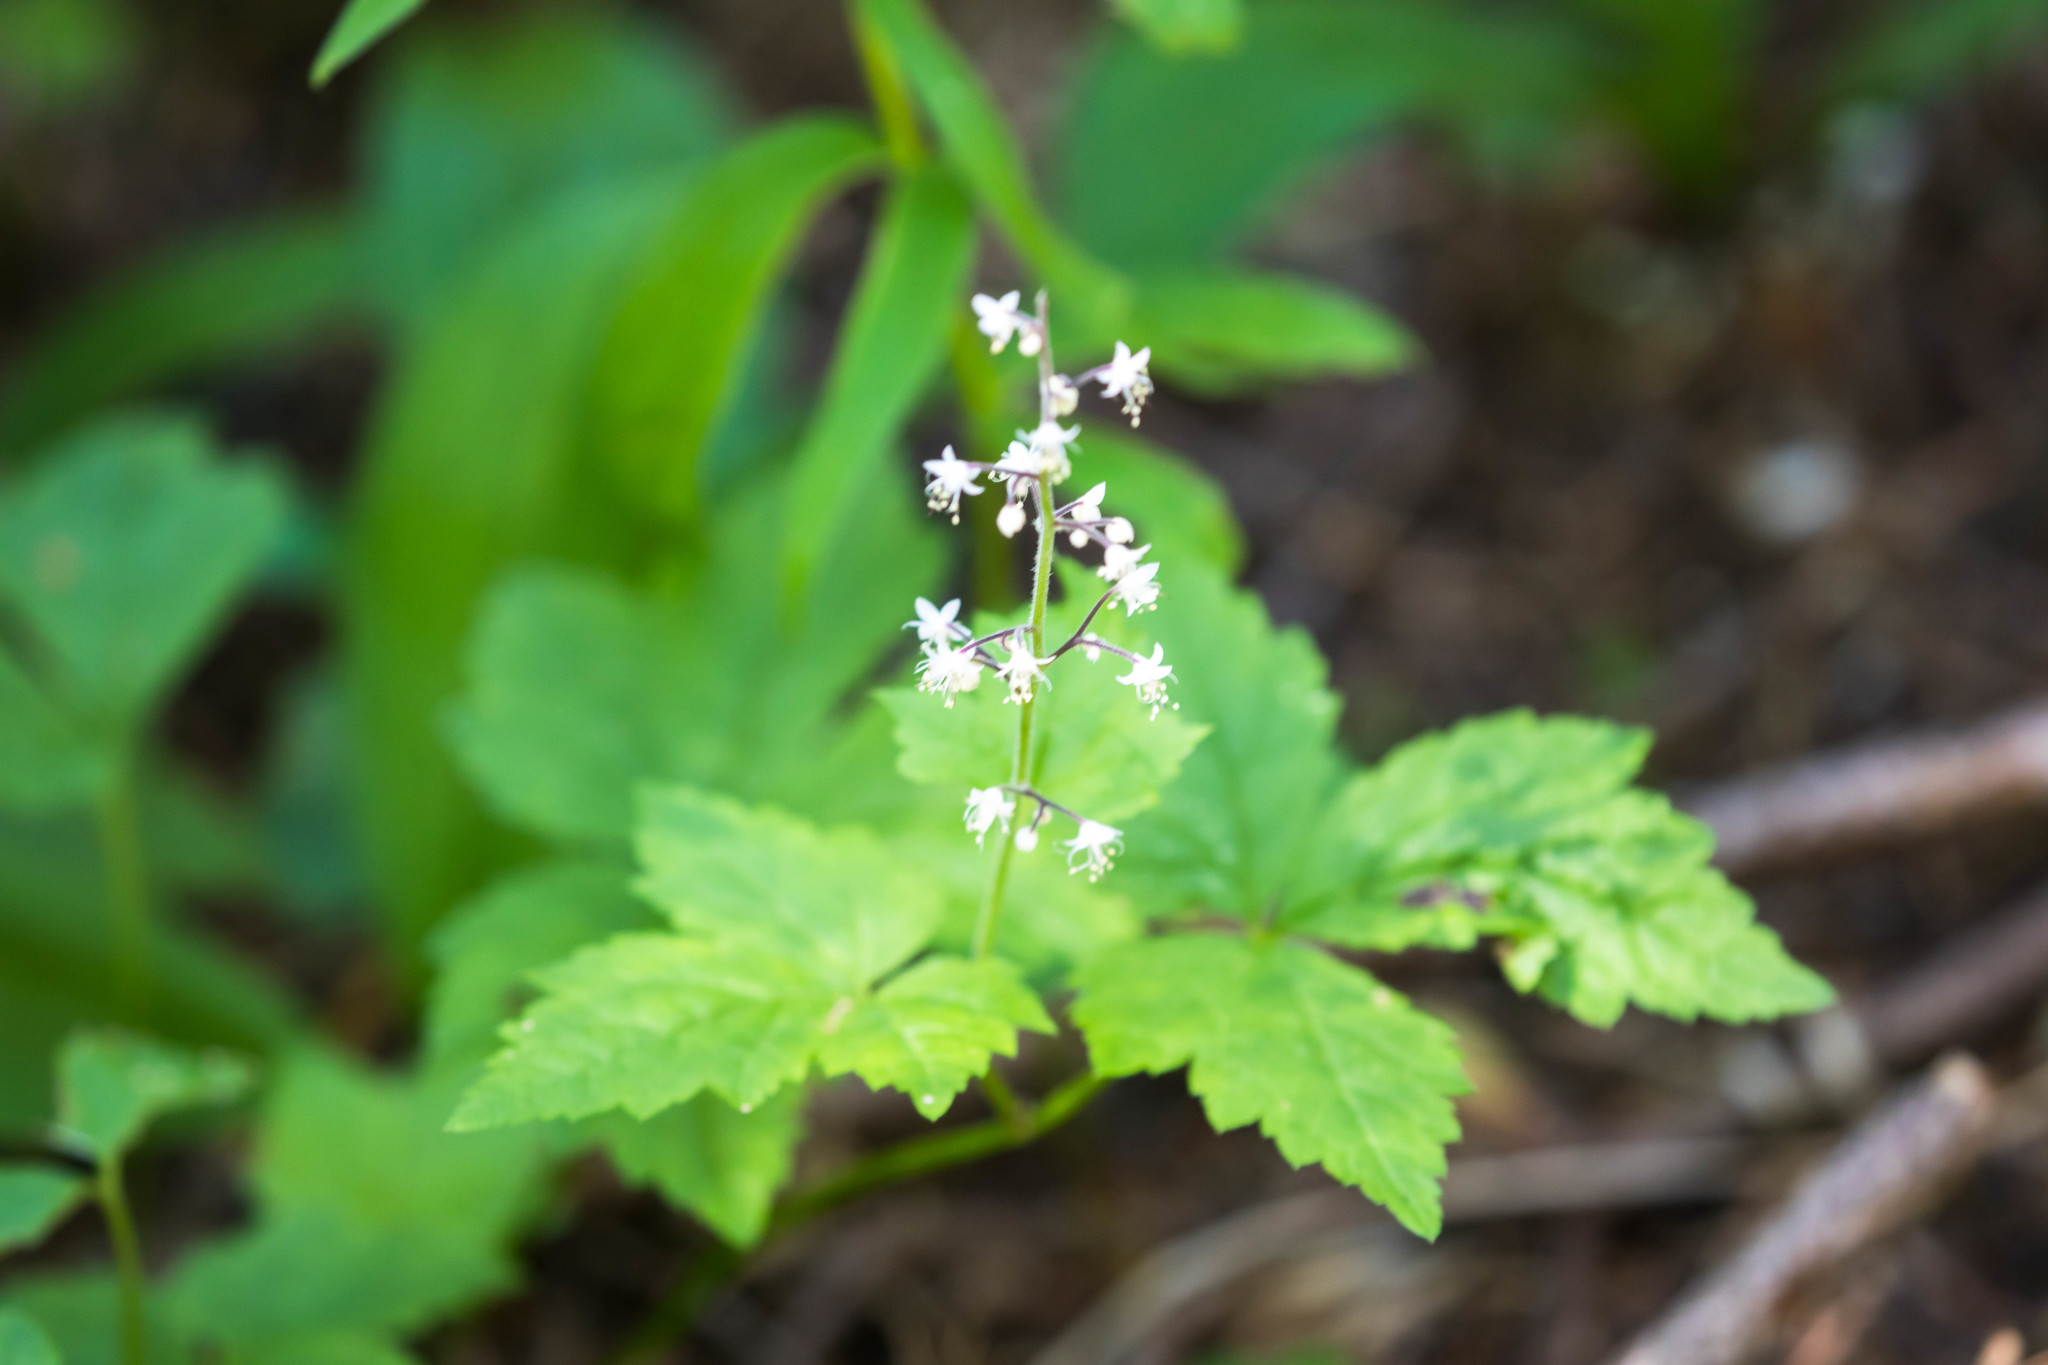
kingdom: Plantae
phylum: Tracheophyta
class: Magnoliopsida
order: Saxifragales
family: Saxifragaceae
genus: Tiarella
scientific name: Tiarella trifoliata
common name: Sugar-scoop
